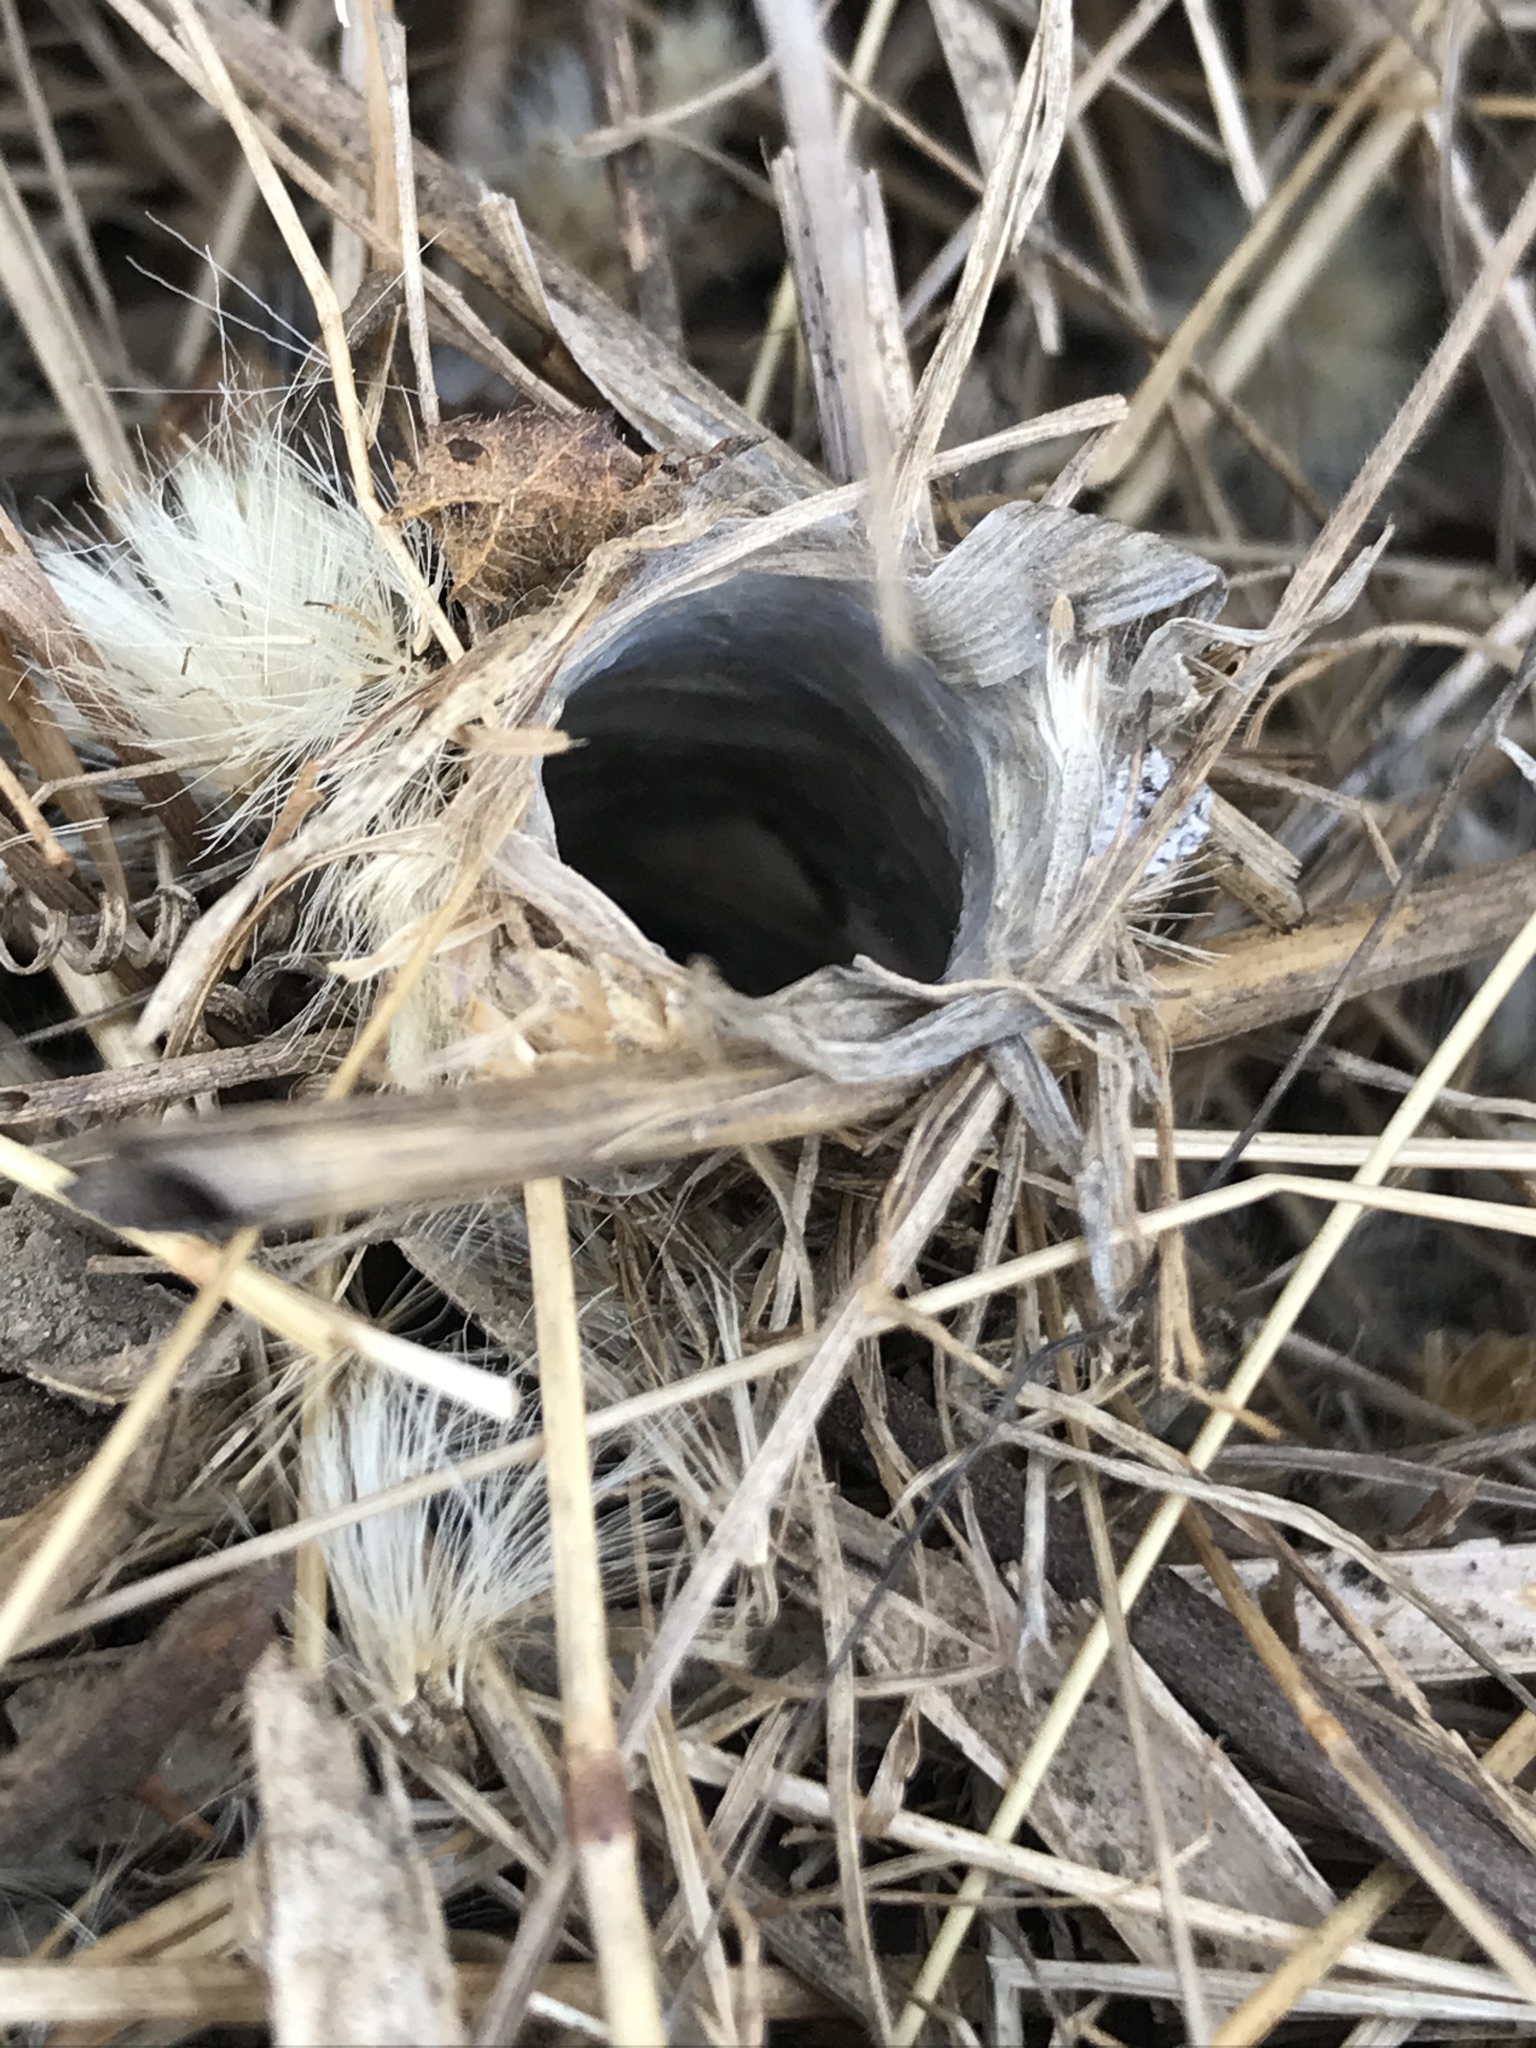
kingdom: Animalia
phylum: Arthropoda
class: Arachnida
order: Araneae
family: Antrodiaetidae
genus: Atypoides
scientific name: Atypoides riversi
